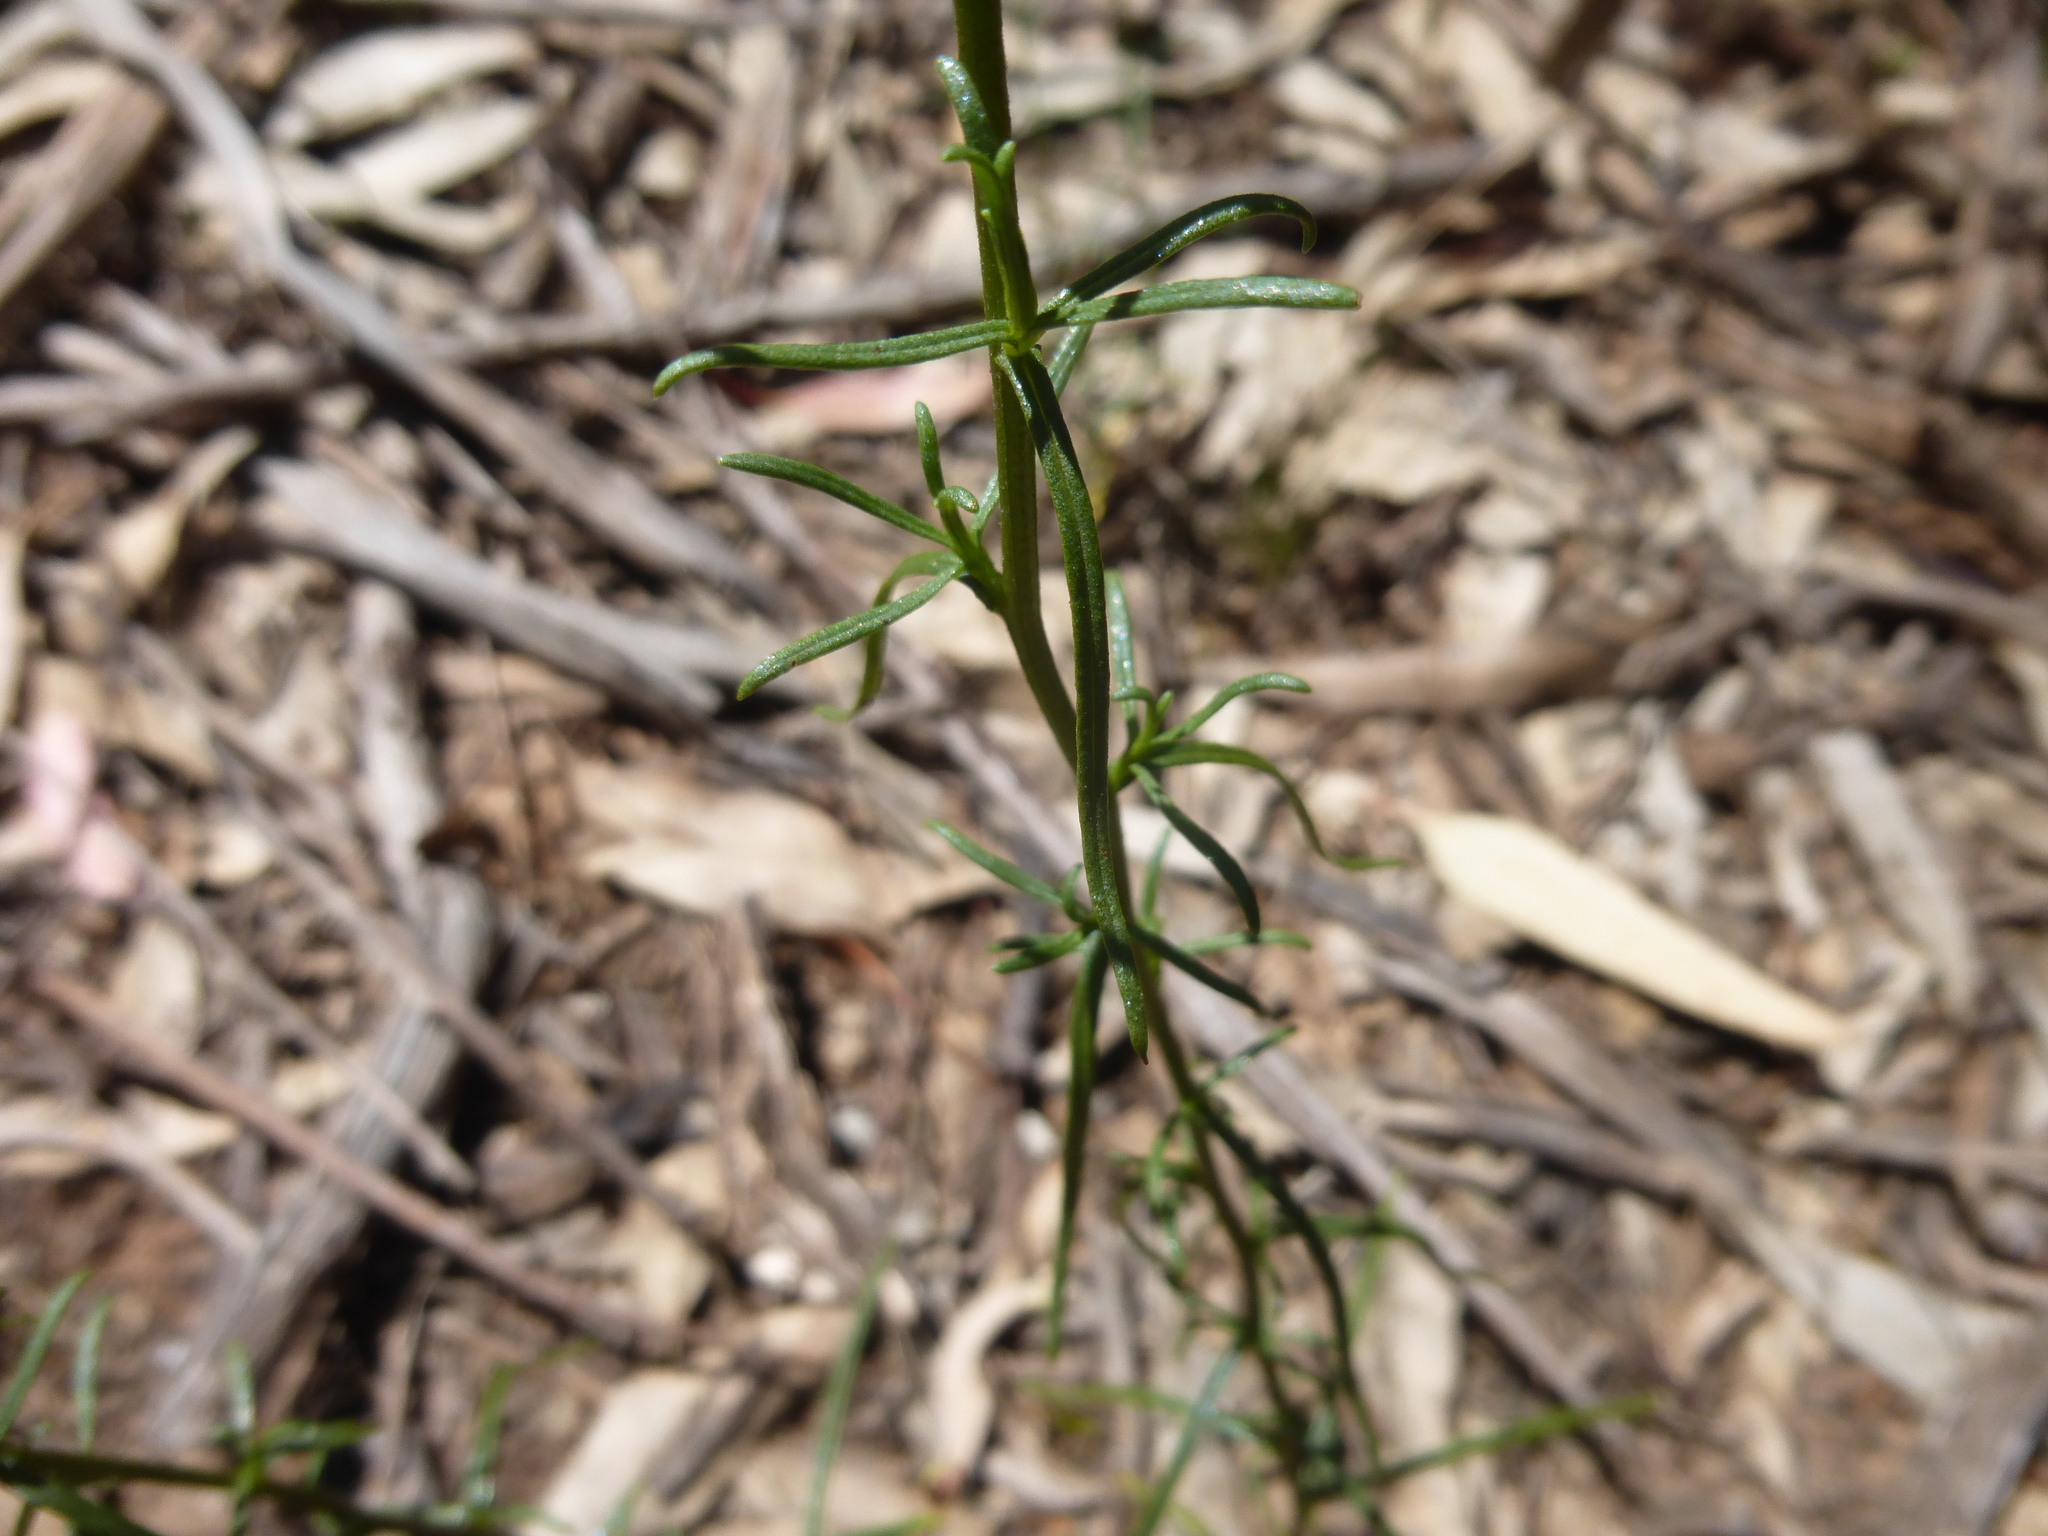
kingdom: Plantae
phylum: Tracheophyta
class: Magnoliopsida
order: Asterales
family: Asteraceae
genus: Xerochrysum
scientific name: Xerochrysum viscosum
